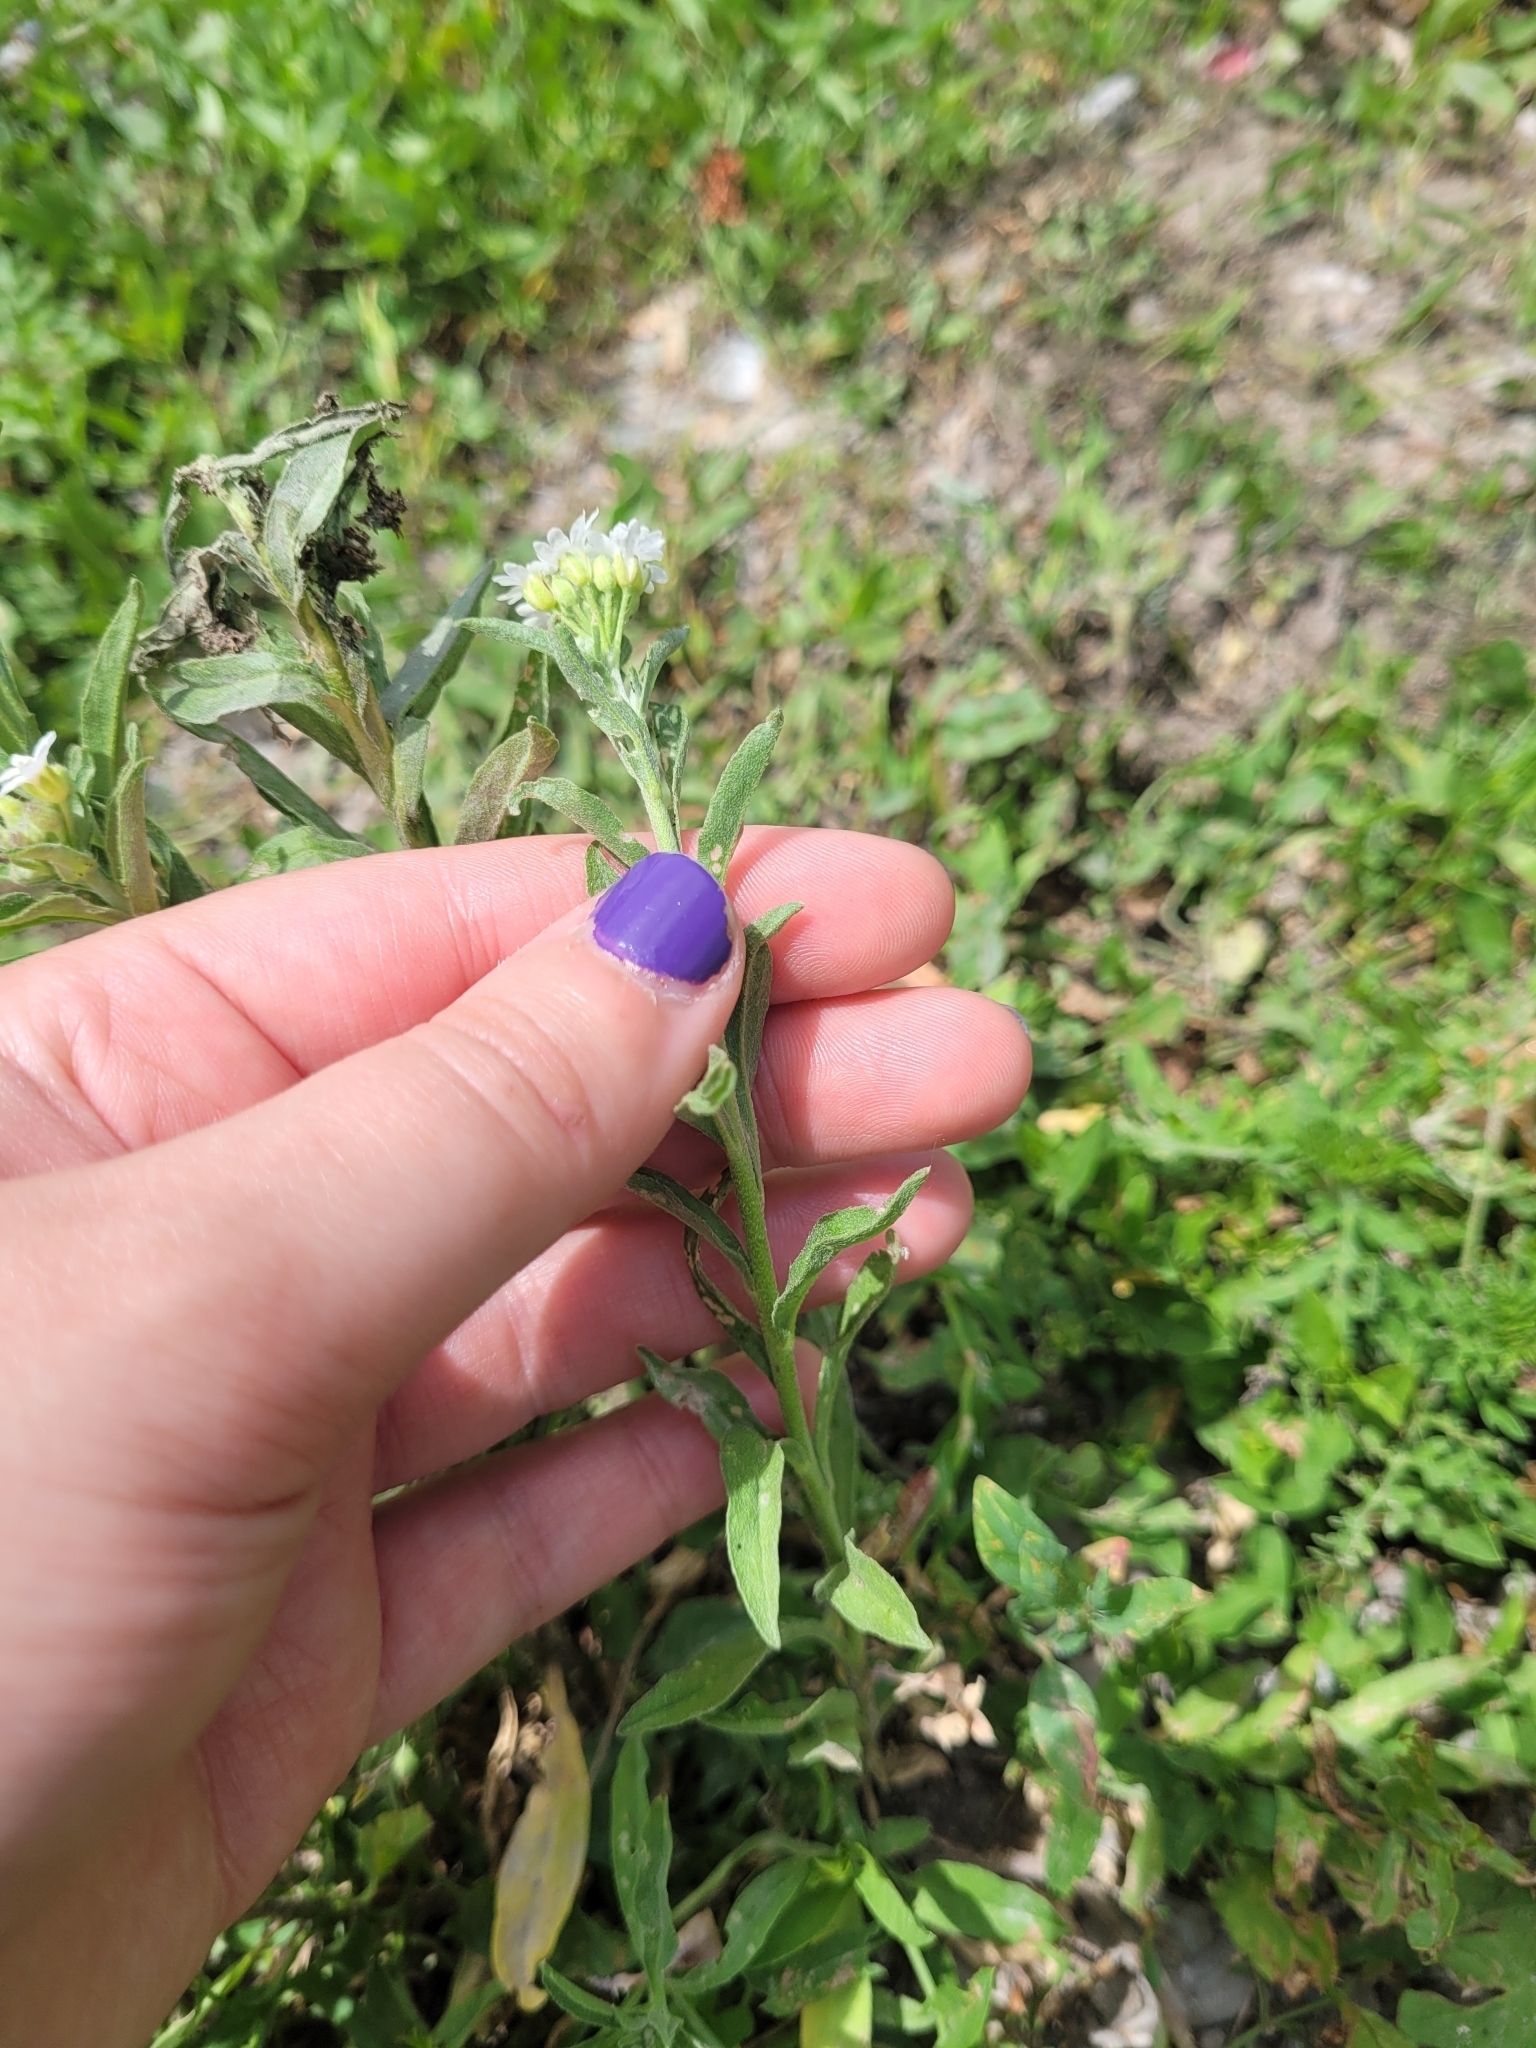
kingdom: Plantae
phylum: Tracheophyta
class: Magnoliopsida
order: Brassicales
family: Brassicaceae
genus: Berteroa
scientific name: Berteroa incana
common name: Hoary alison
